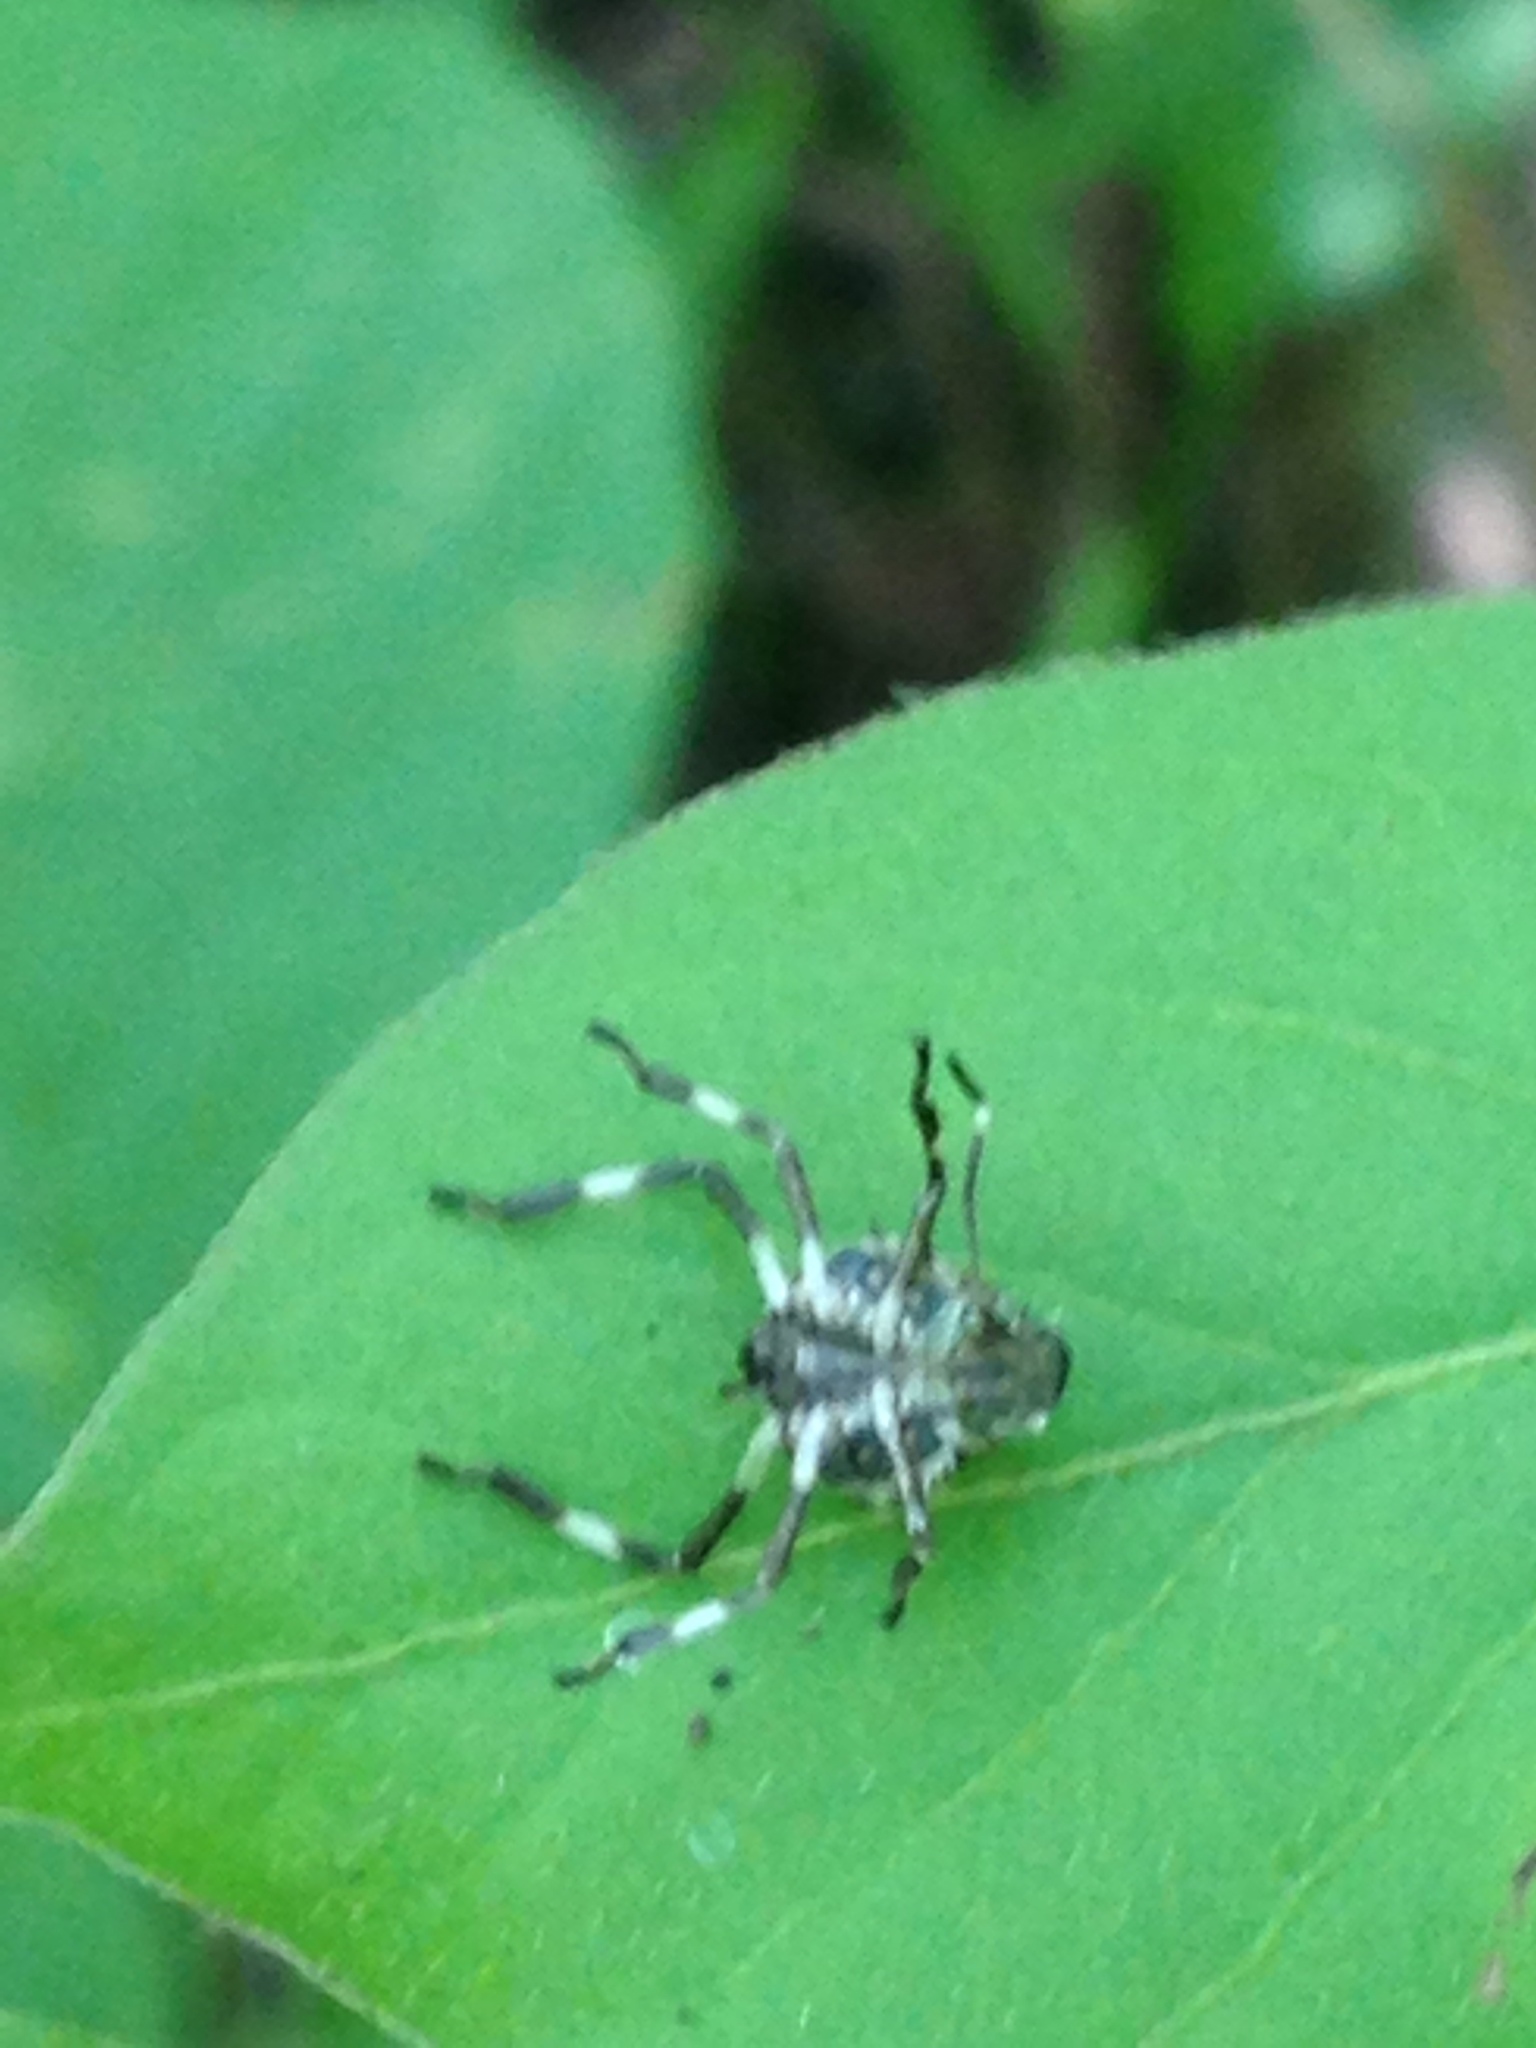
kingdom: Animalia
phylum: Arthropoda
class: Insecta
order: Hemiptera
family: Pentatomidae
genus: Halyomorpha
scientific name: Halyomorpha halys
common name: Brown marmorated stink bug
